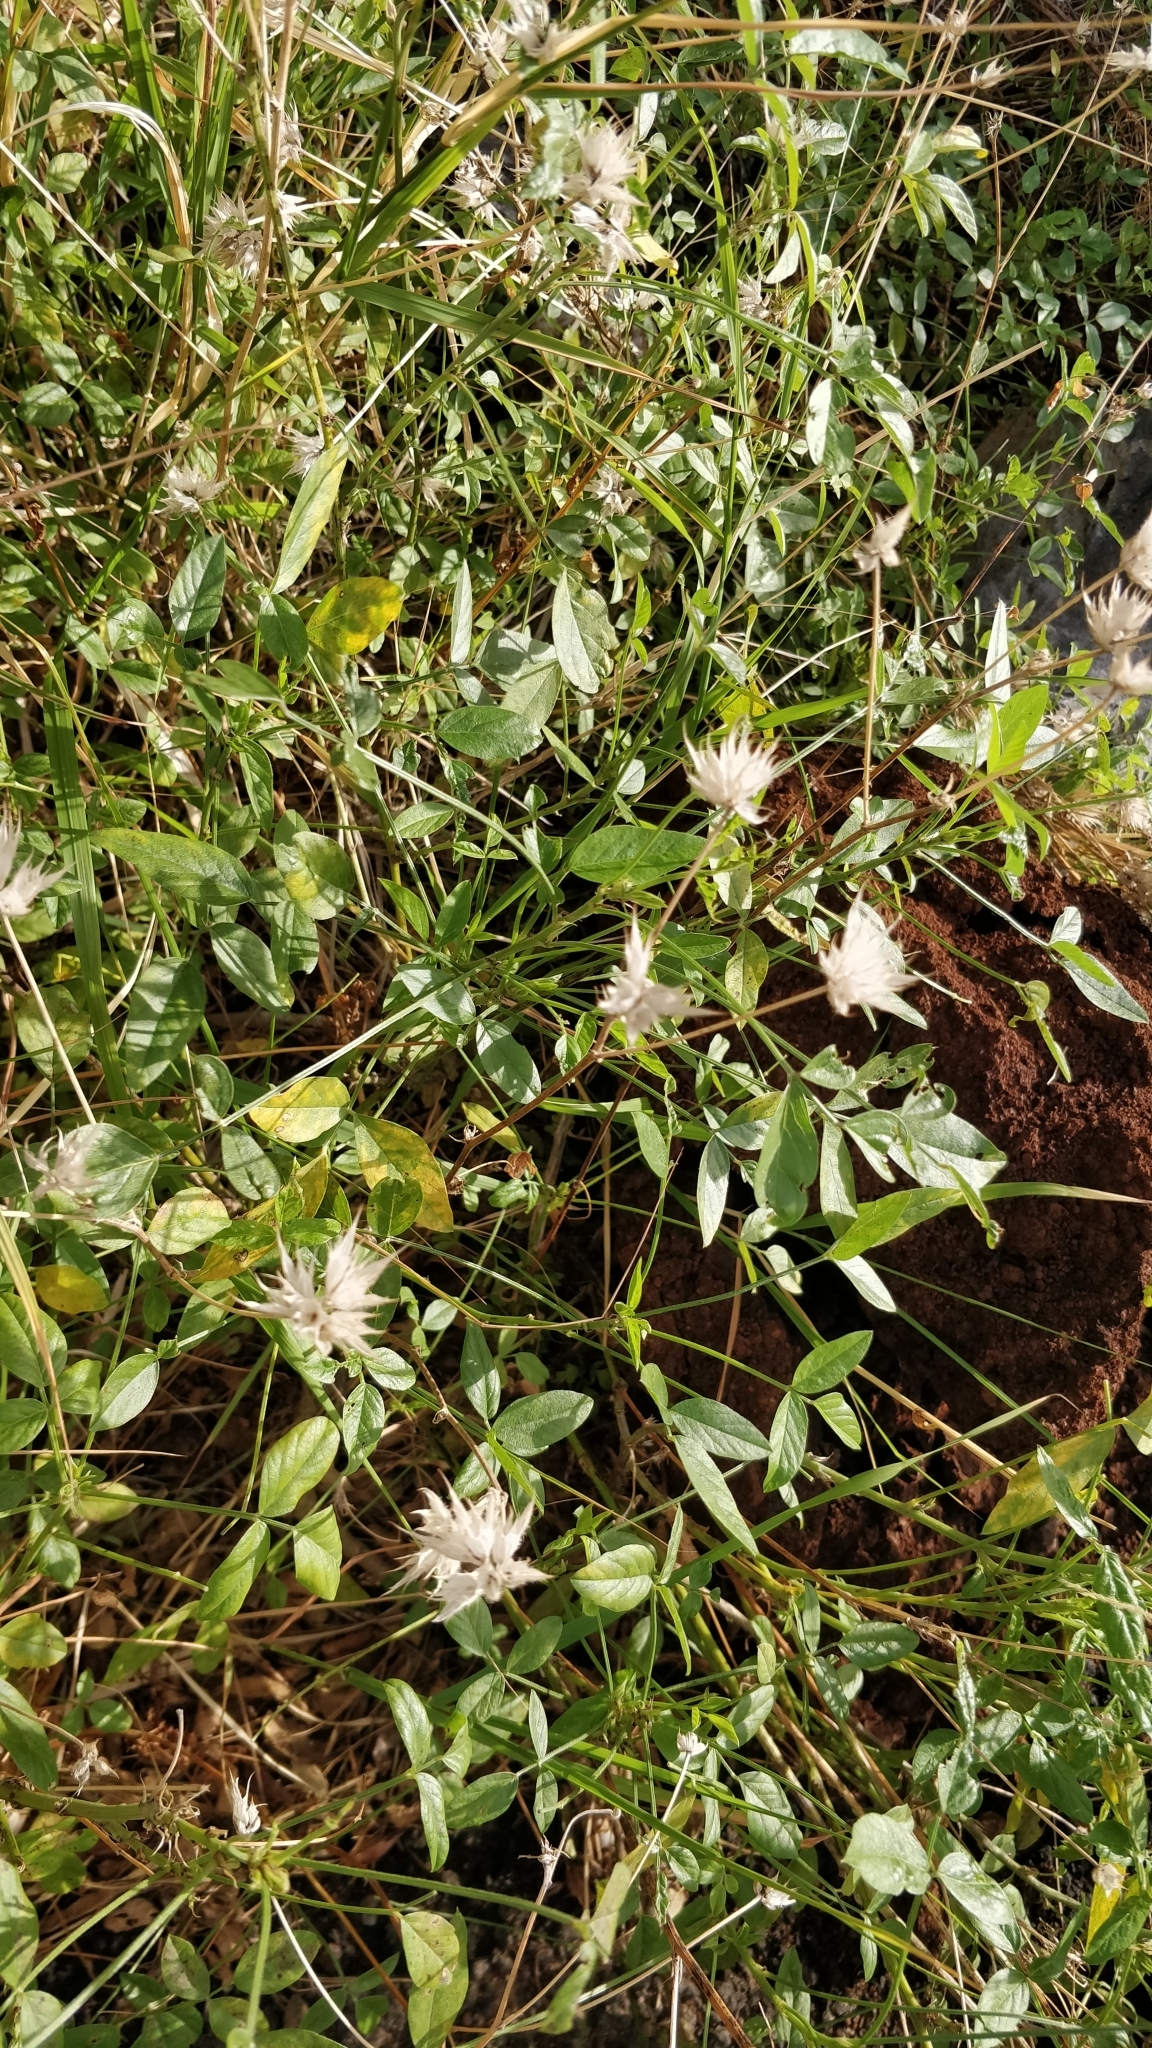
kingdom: Plantae
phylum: Tracheophyta
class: Magnoliopsida
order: Fabales
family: Fabaceae
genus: Bituminaria
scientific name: Bituminaria bituminosa
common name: Arabian pea
